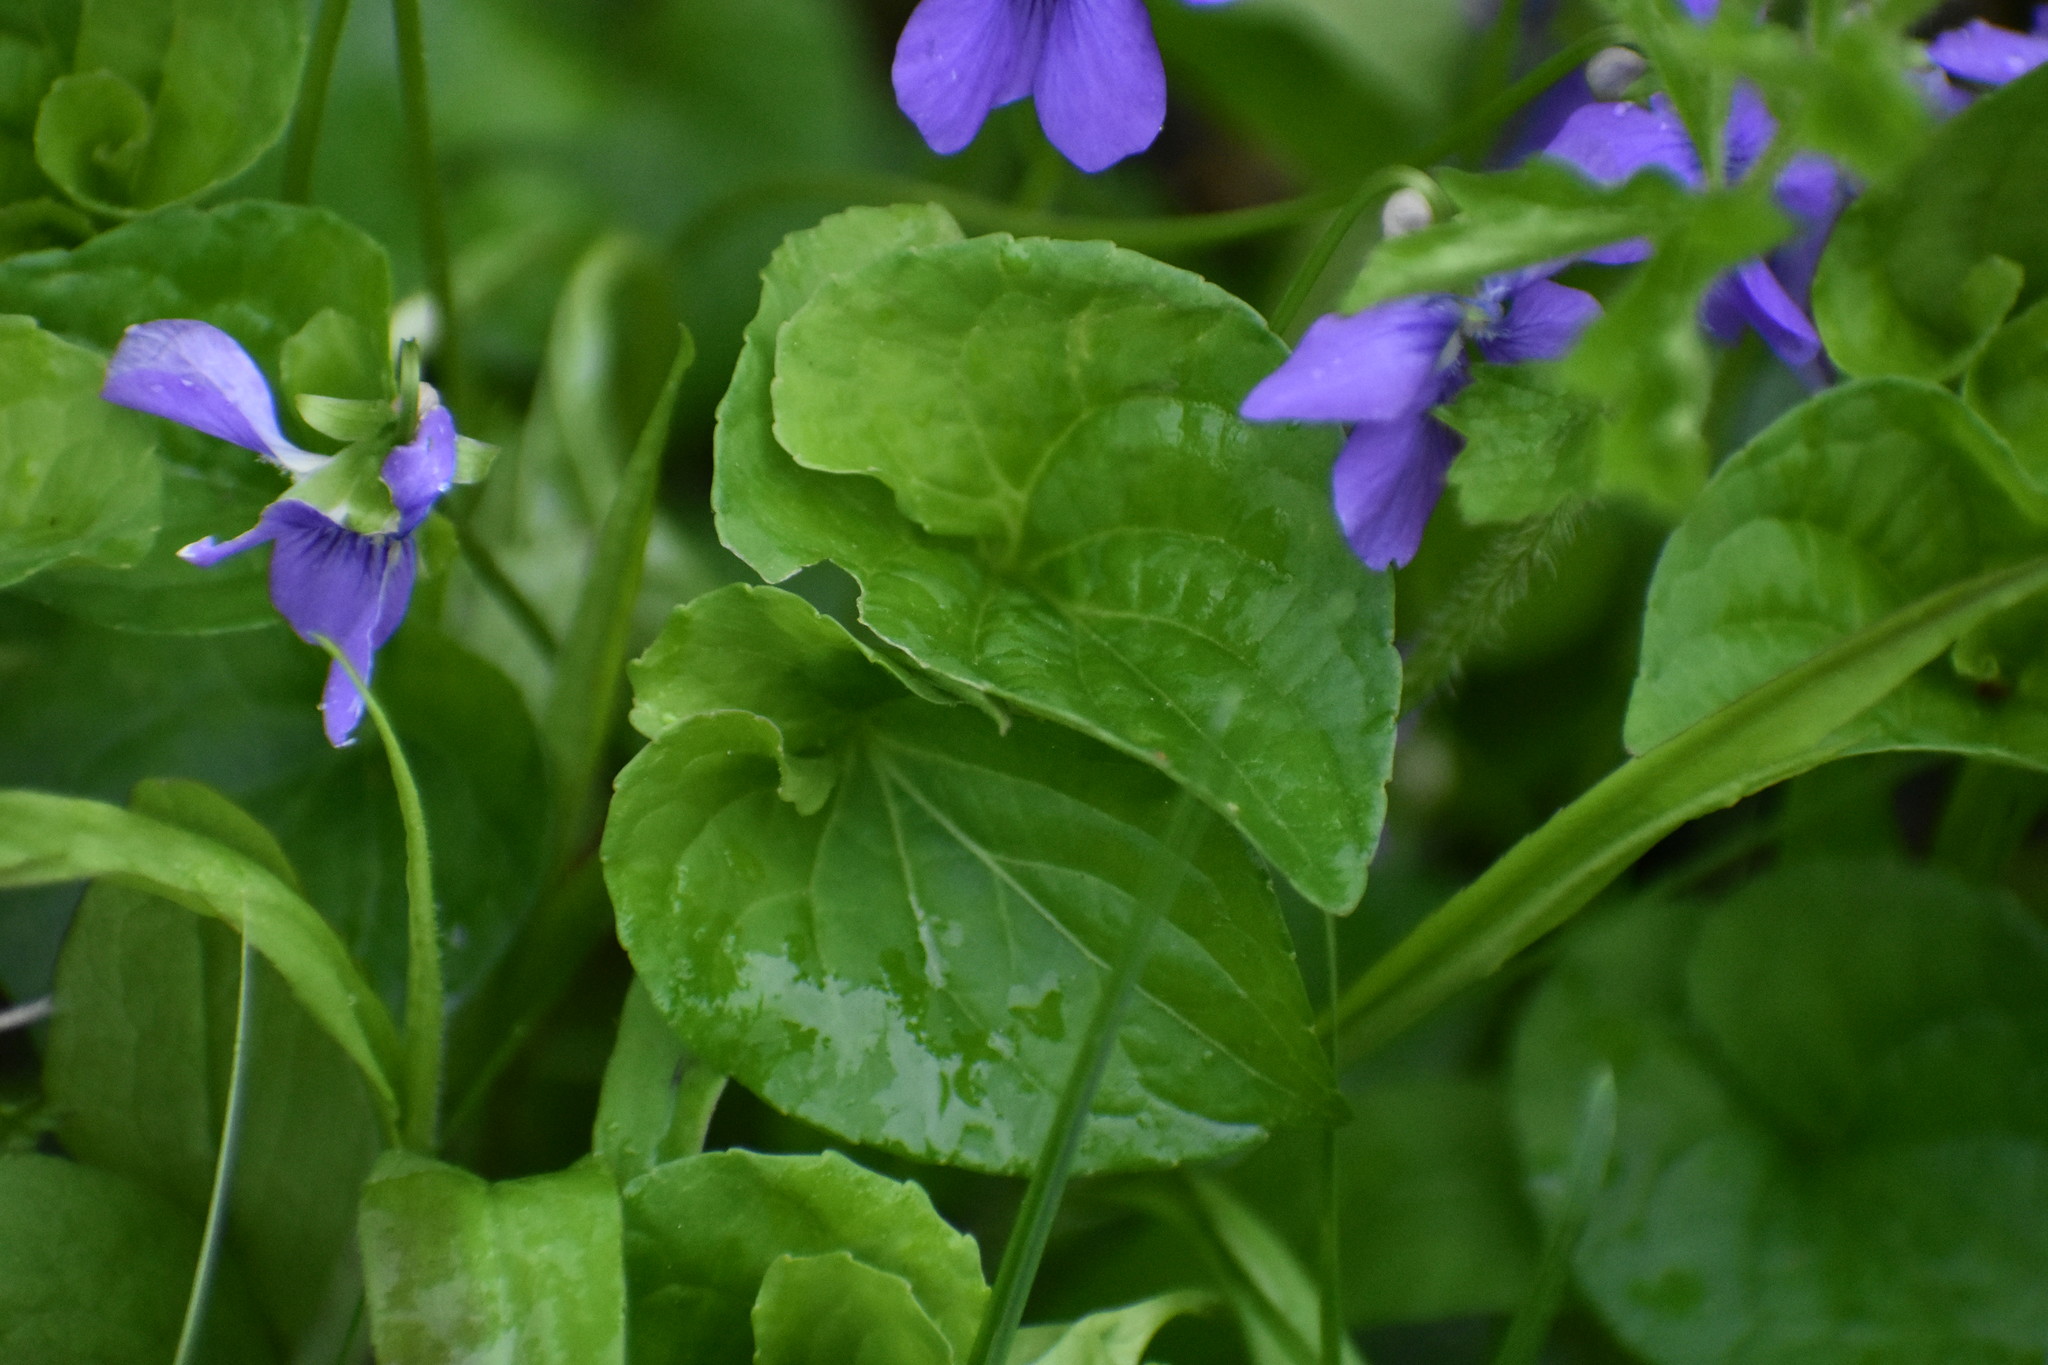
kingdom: Plantae
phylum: Tracheophyta
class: Magnoliopsida
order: Malpighiales
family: Violaceae
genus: Viola
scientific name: Viola sororia
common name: Dooryard violet
